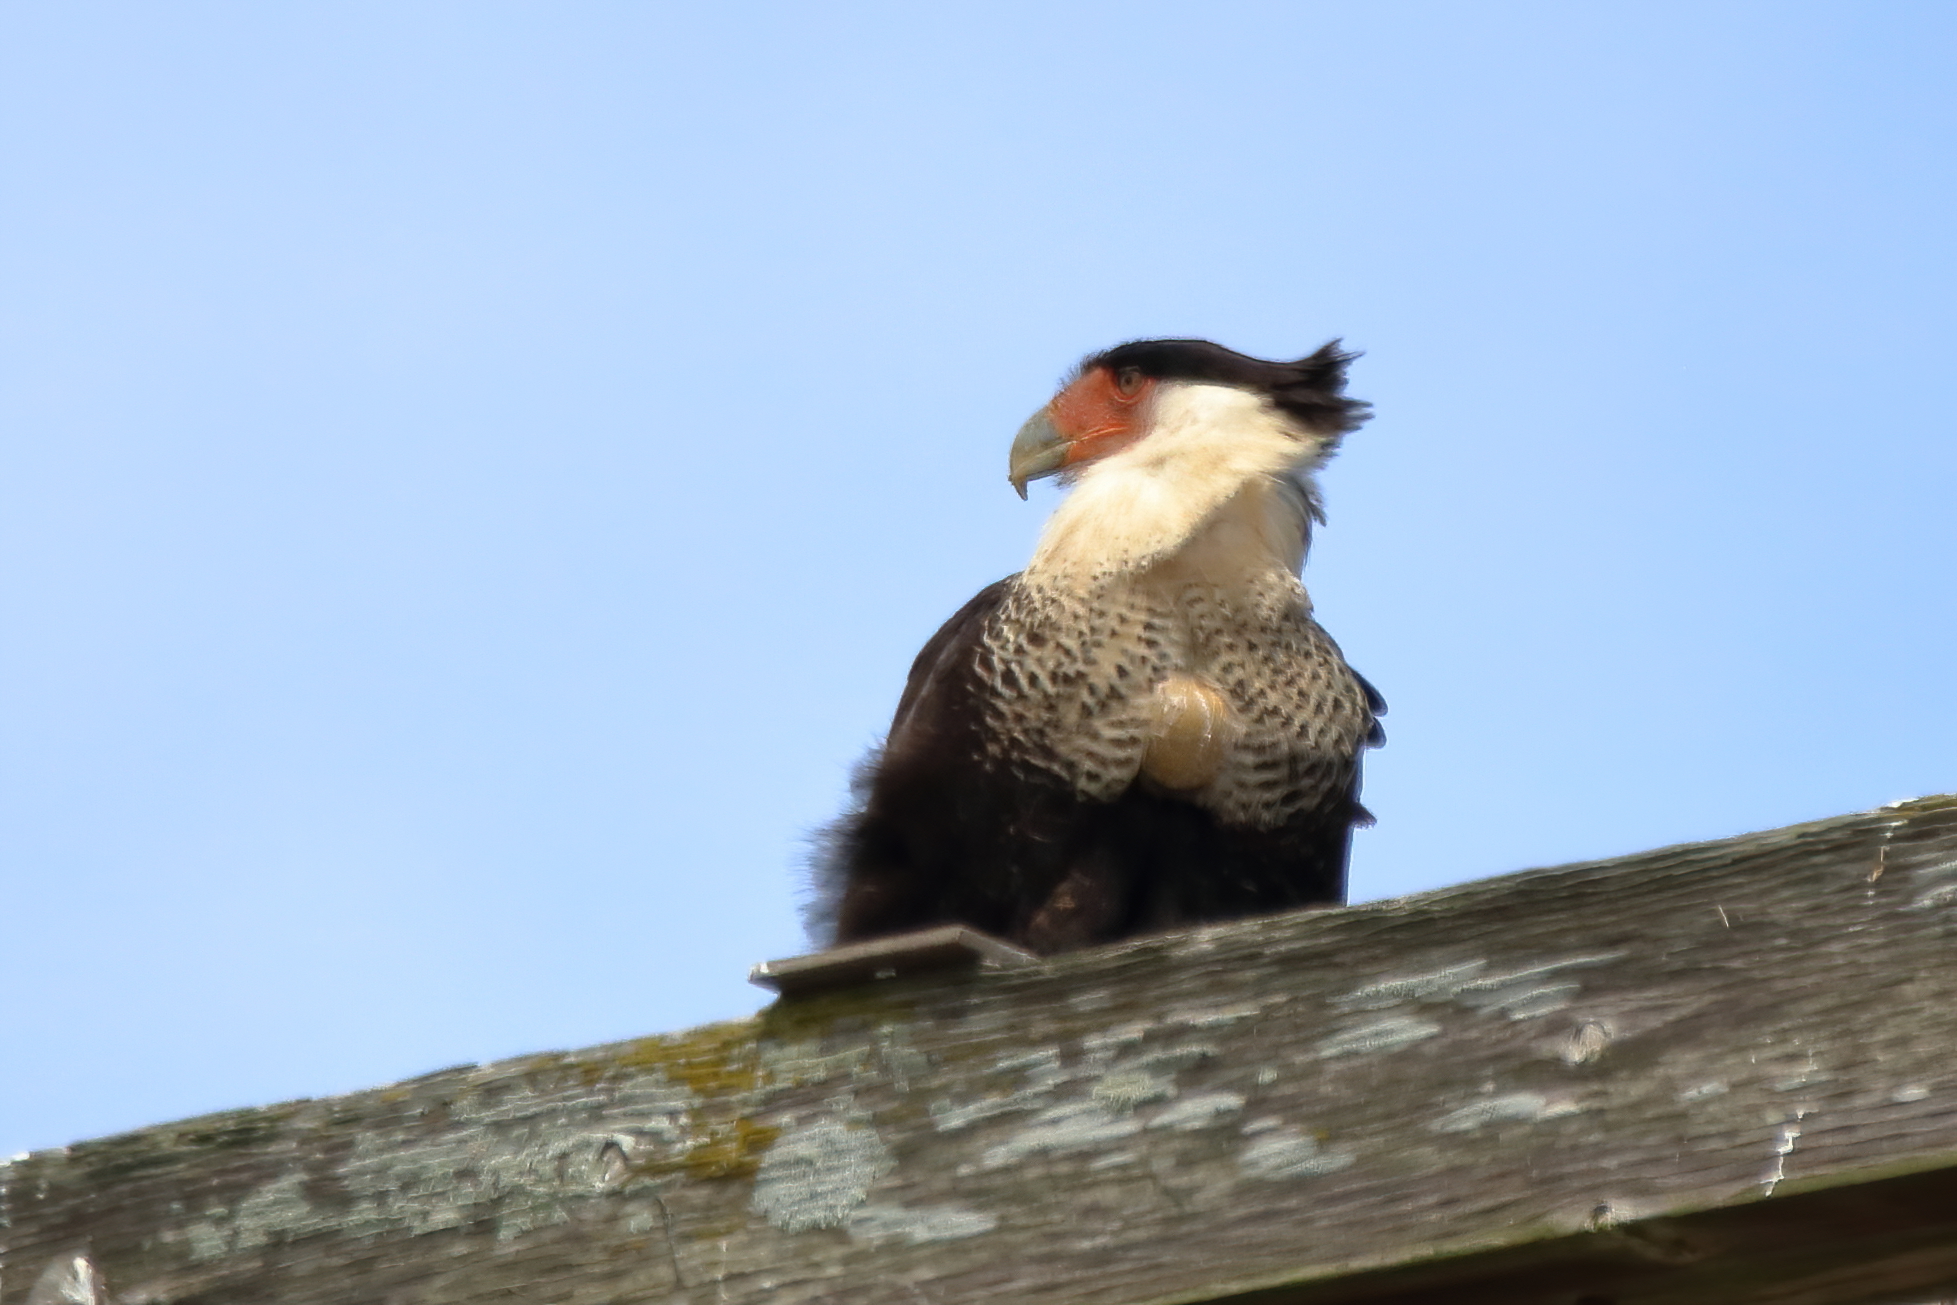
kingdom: Animalia
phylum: Chordata
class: Aves
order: Falconiformes
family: Falconidae
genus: Caracara
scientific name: Caracara plancus
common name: Southern caracara
